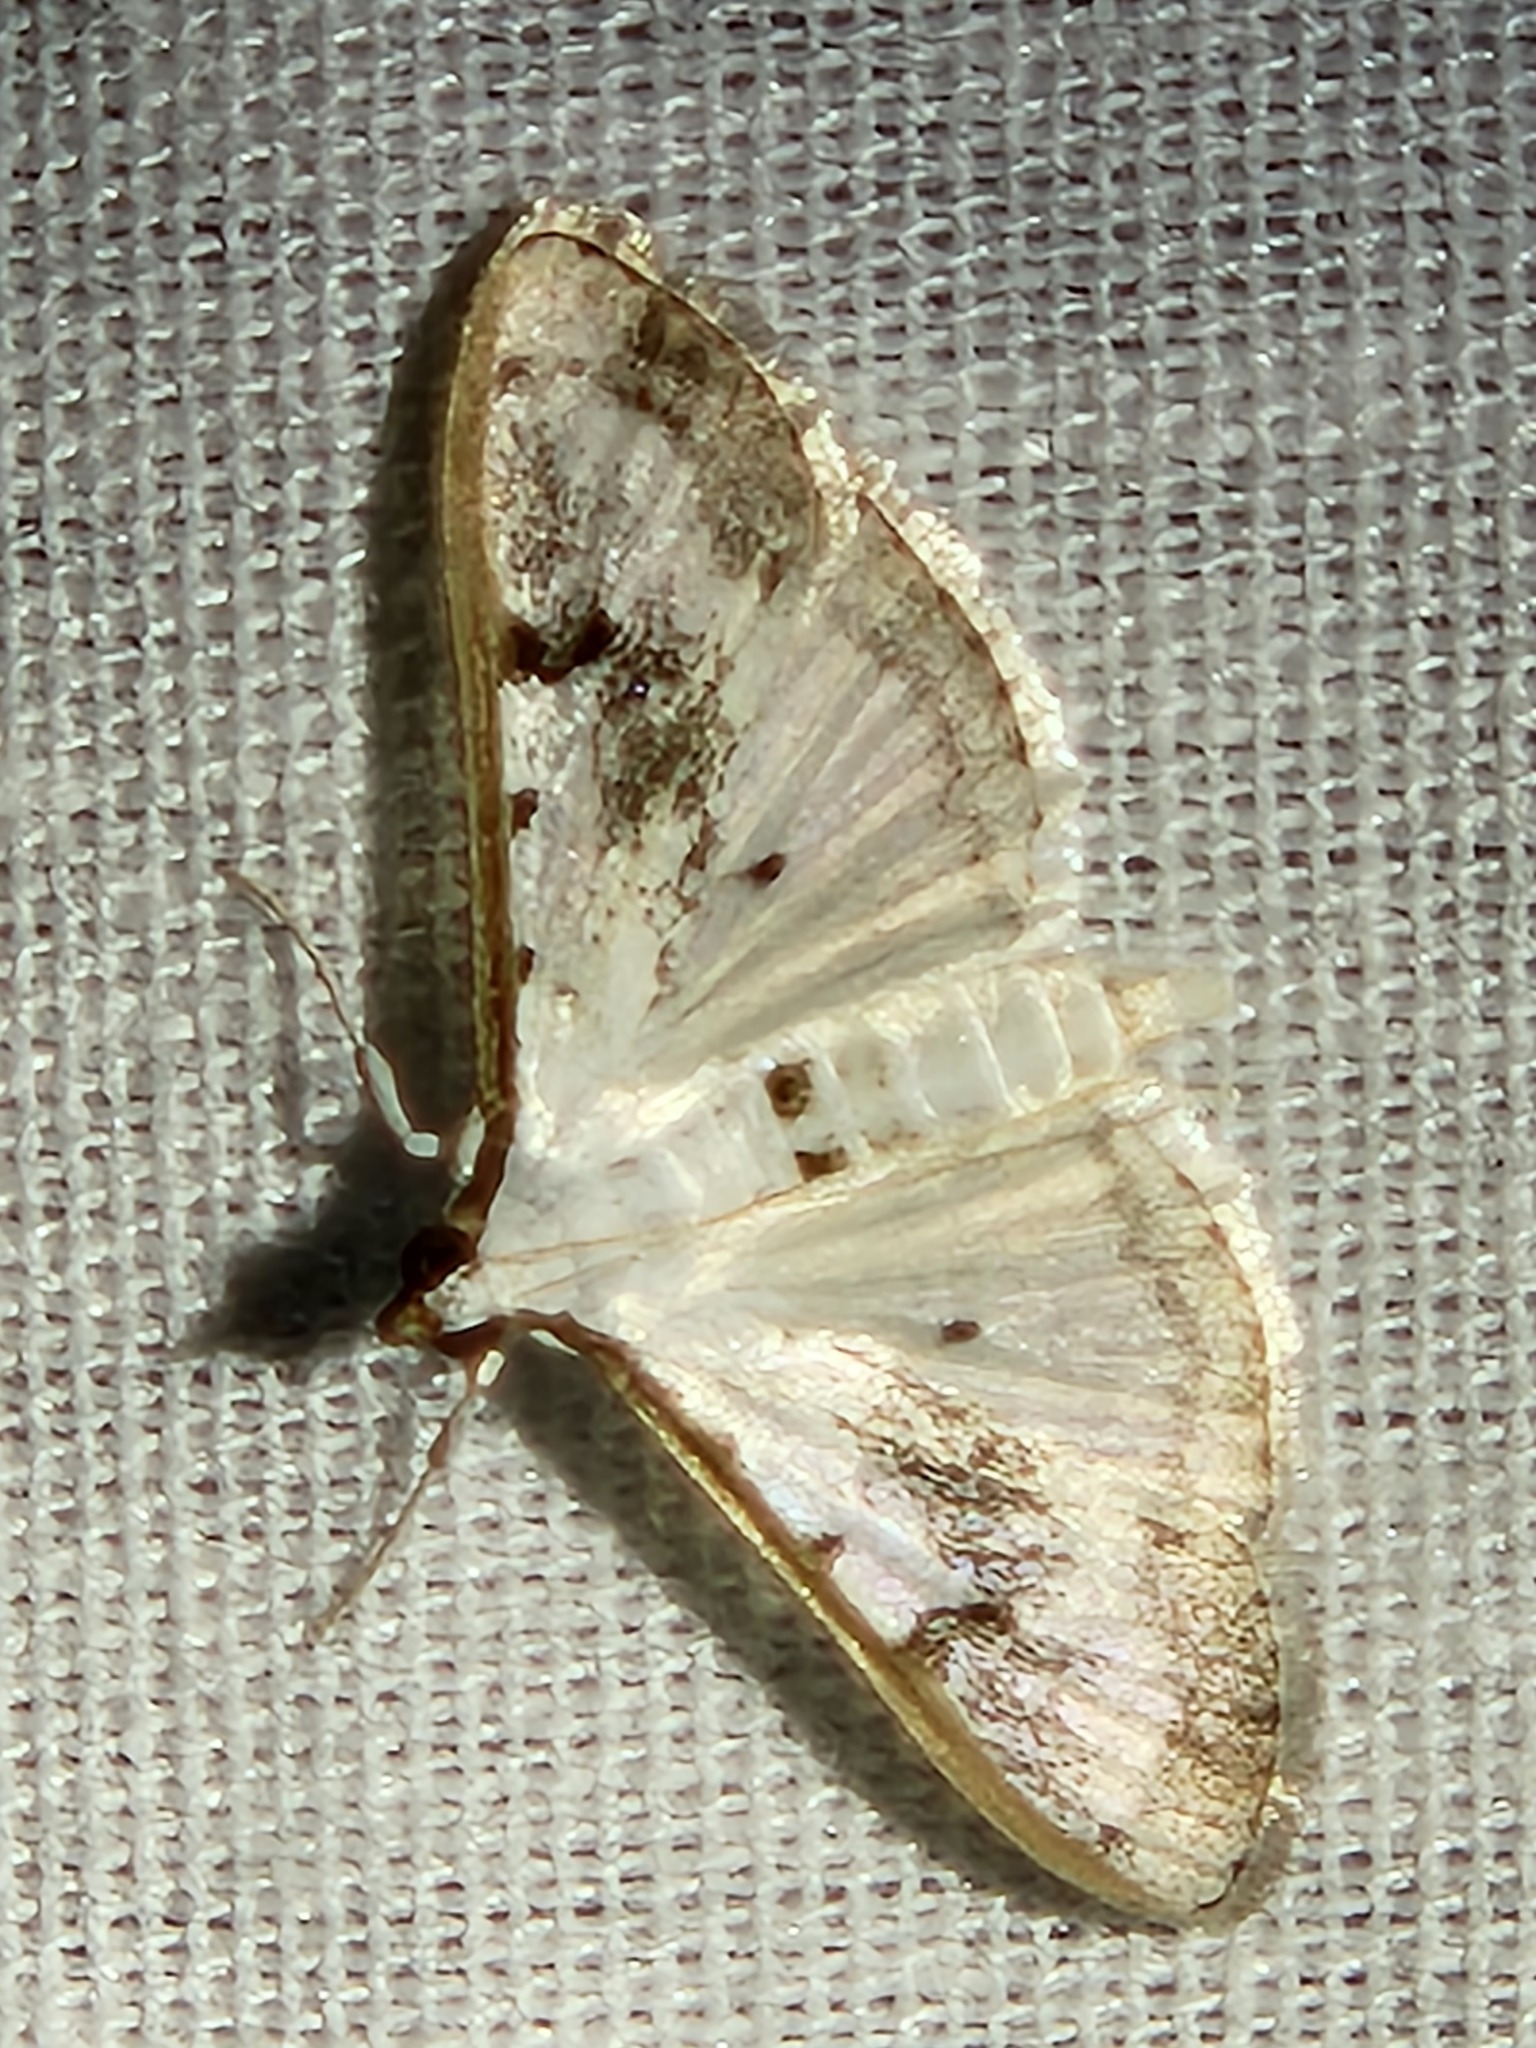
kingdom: Animalia
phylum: Arthropoda
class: Insecta
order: Lepidoptera
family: Crambidae
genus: Palpita
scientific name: Palpita gracilalis
